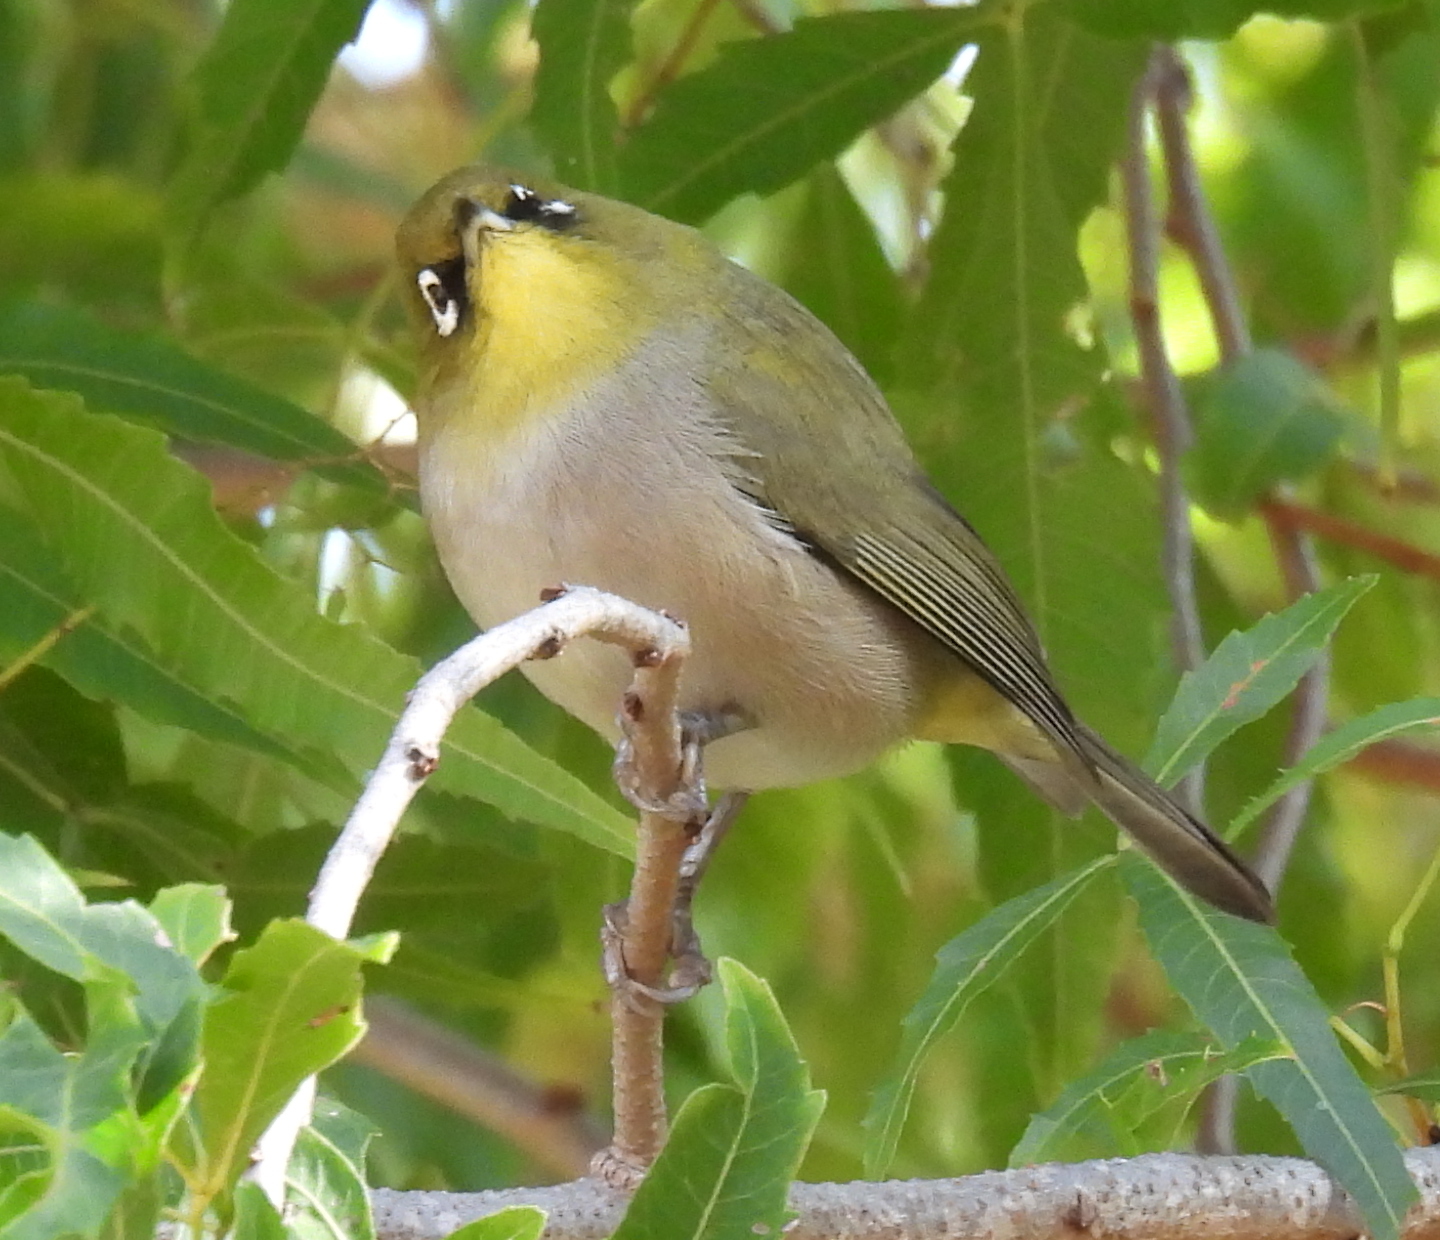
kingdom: Animalia
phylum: Chordata
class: Aves
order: Passeriformes
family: Zosteropidae
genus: Zosterops
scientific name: Zosterops virens
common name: Cape white-eye
